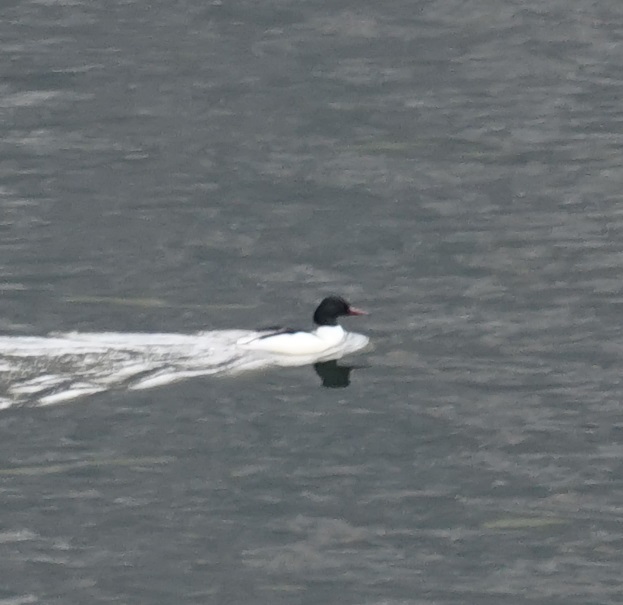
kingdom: Animalia
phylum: Chordata
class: Aves
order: Anseriformes
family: Anatidae
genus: Mergus
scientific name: Mergus merganser
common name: Common merganser
